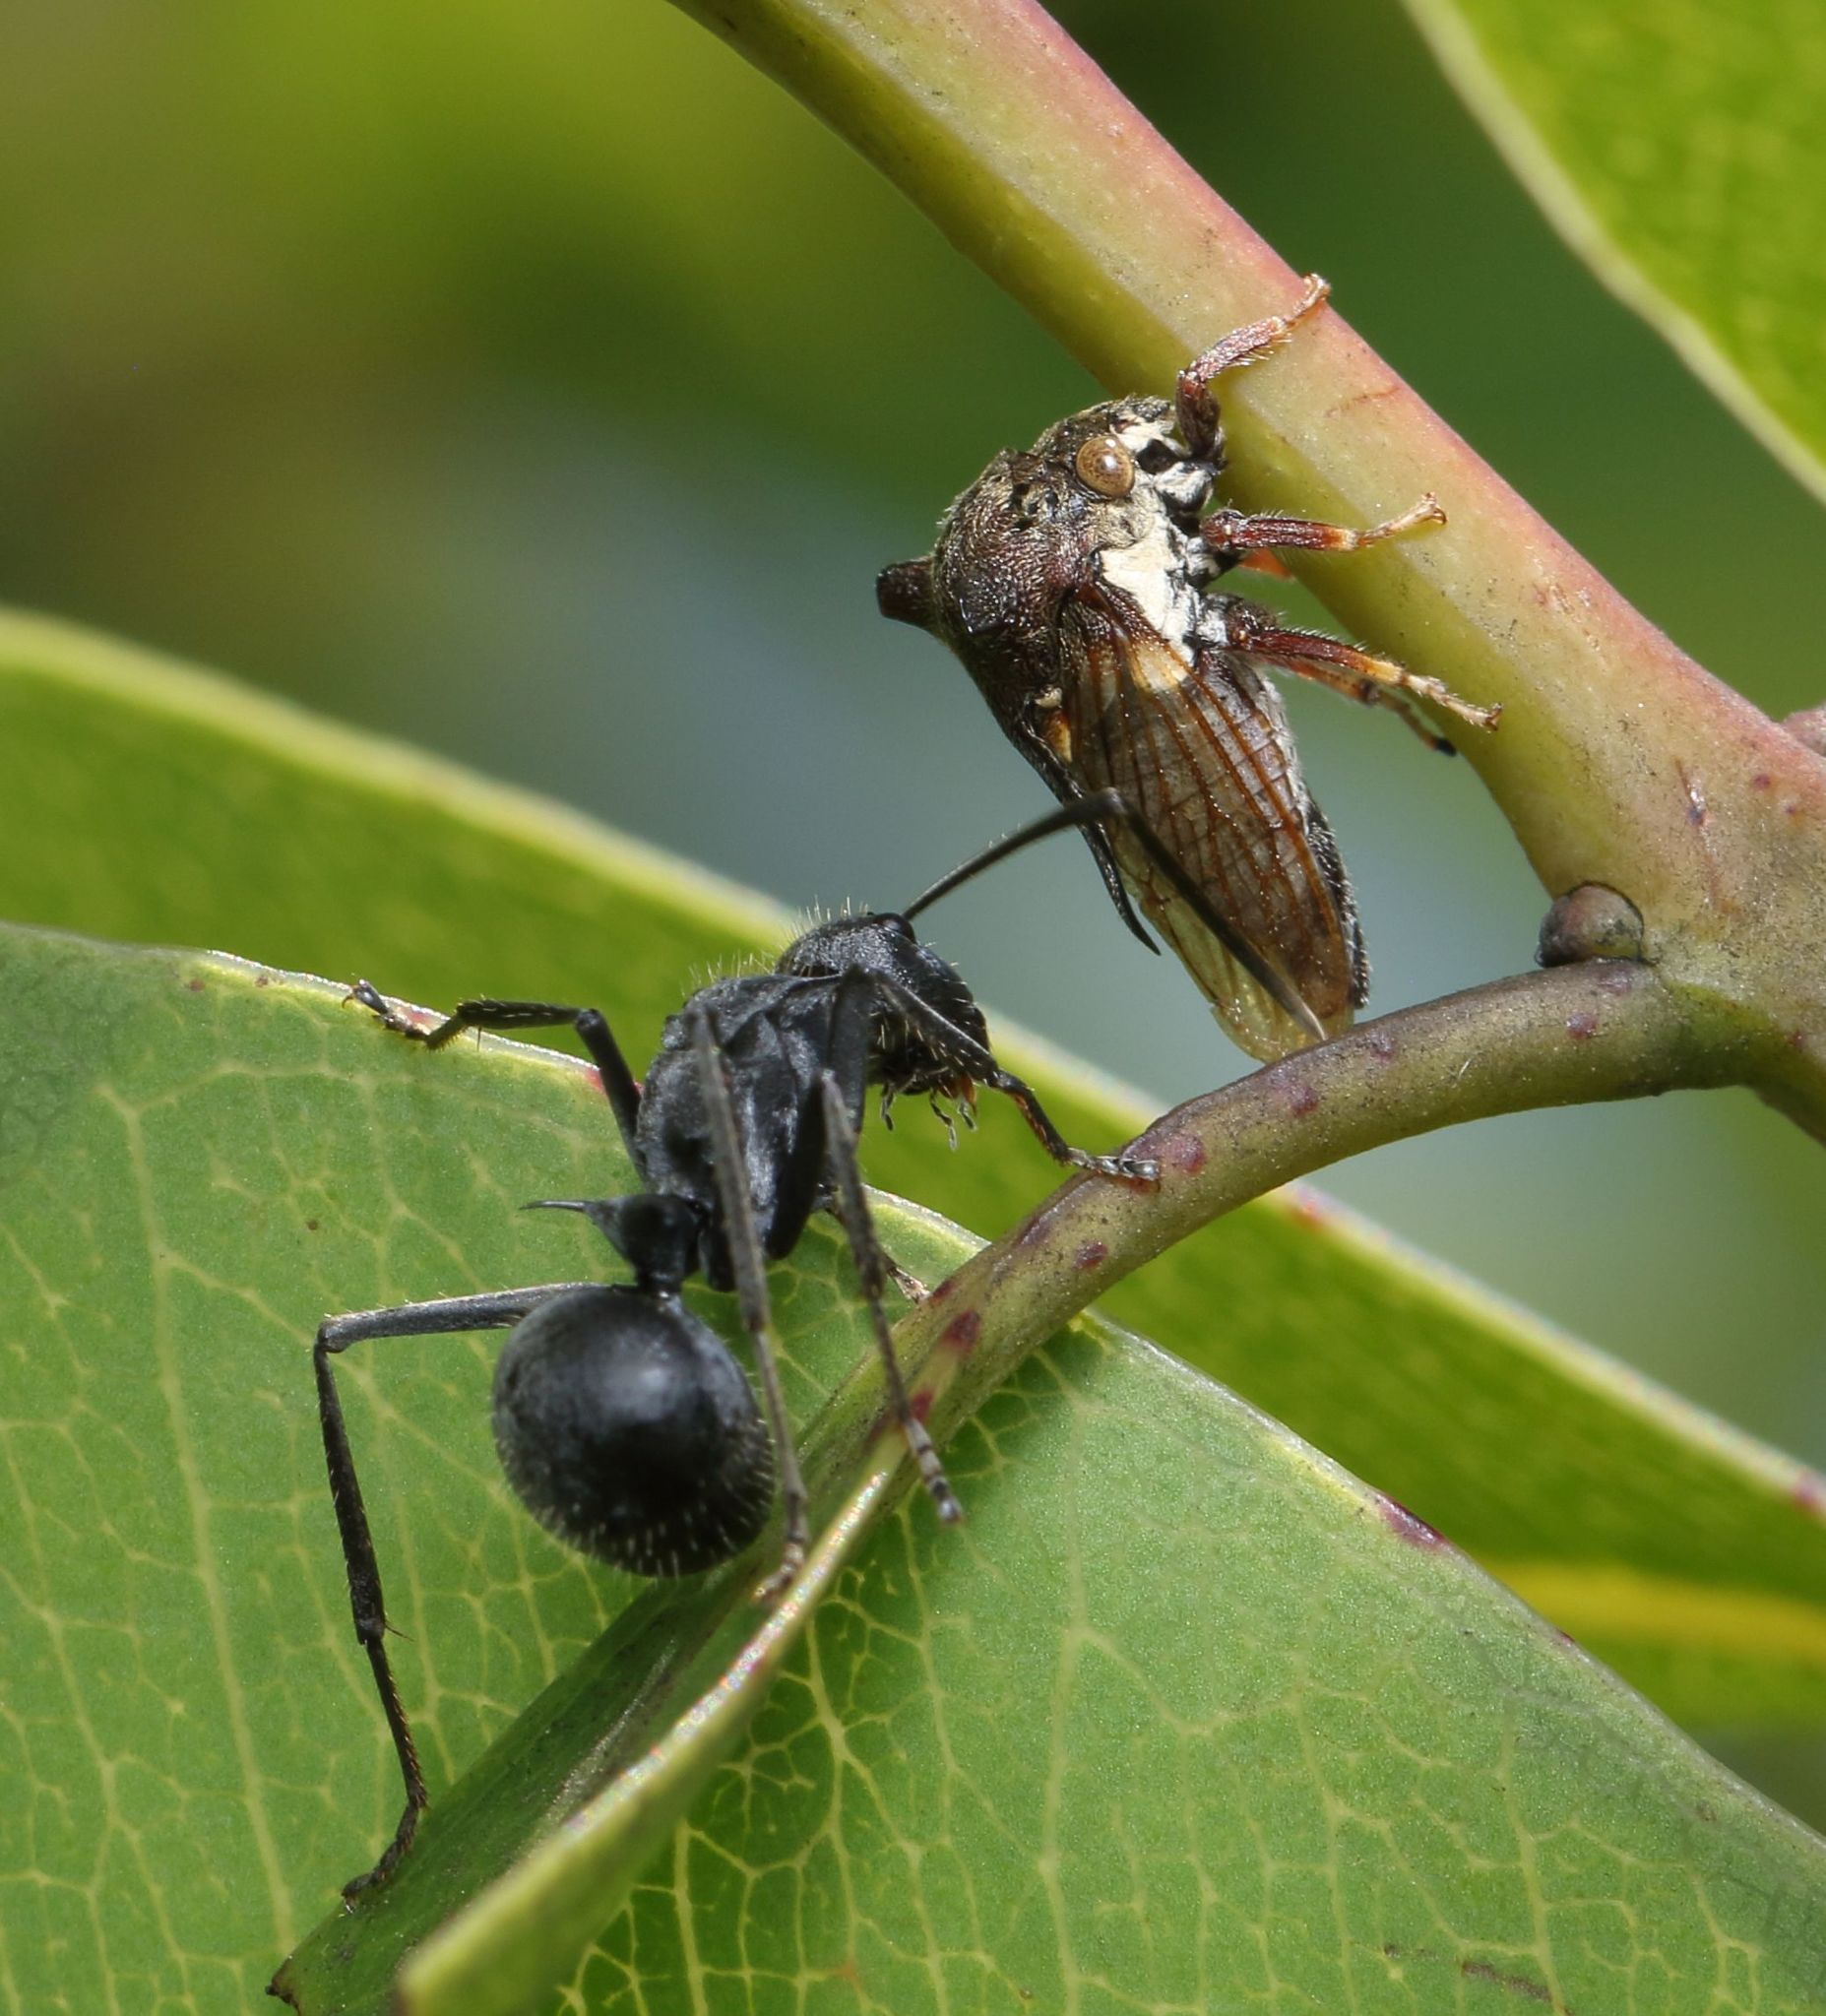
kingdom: Animalia
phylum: Arthropoda
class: Insecta
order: Hymenoptera
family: Formicidae
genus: Polyrhachis
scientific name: Polyrhachis schistacea
